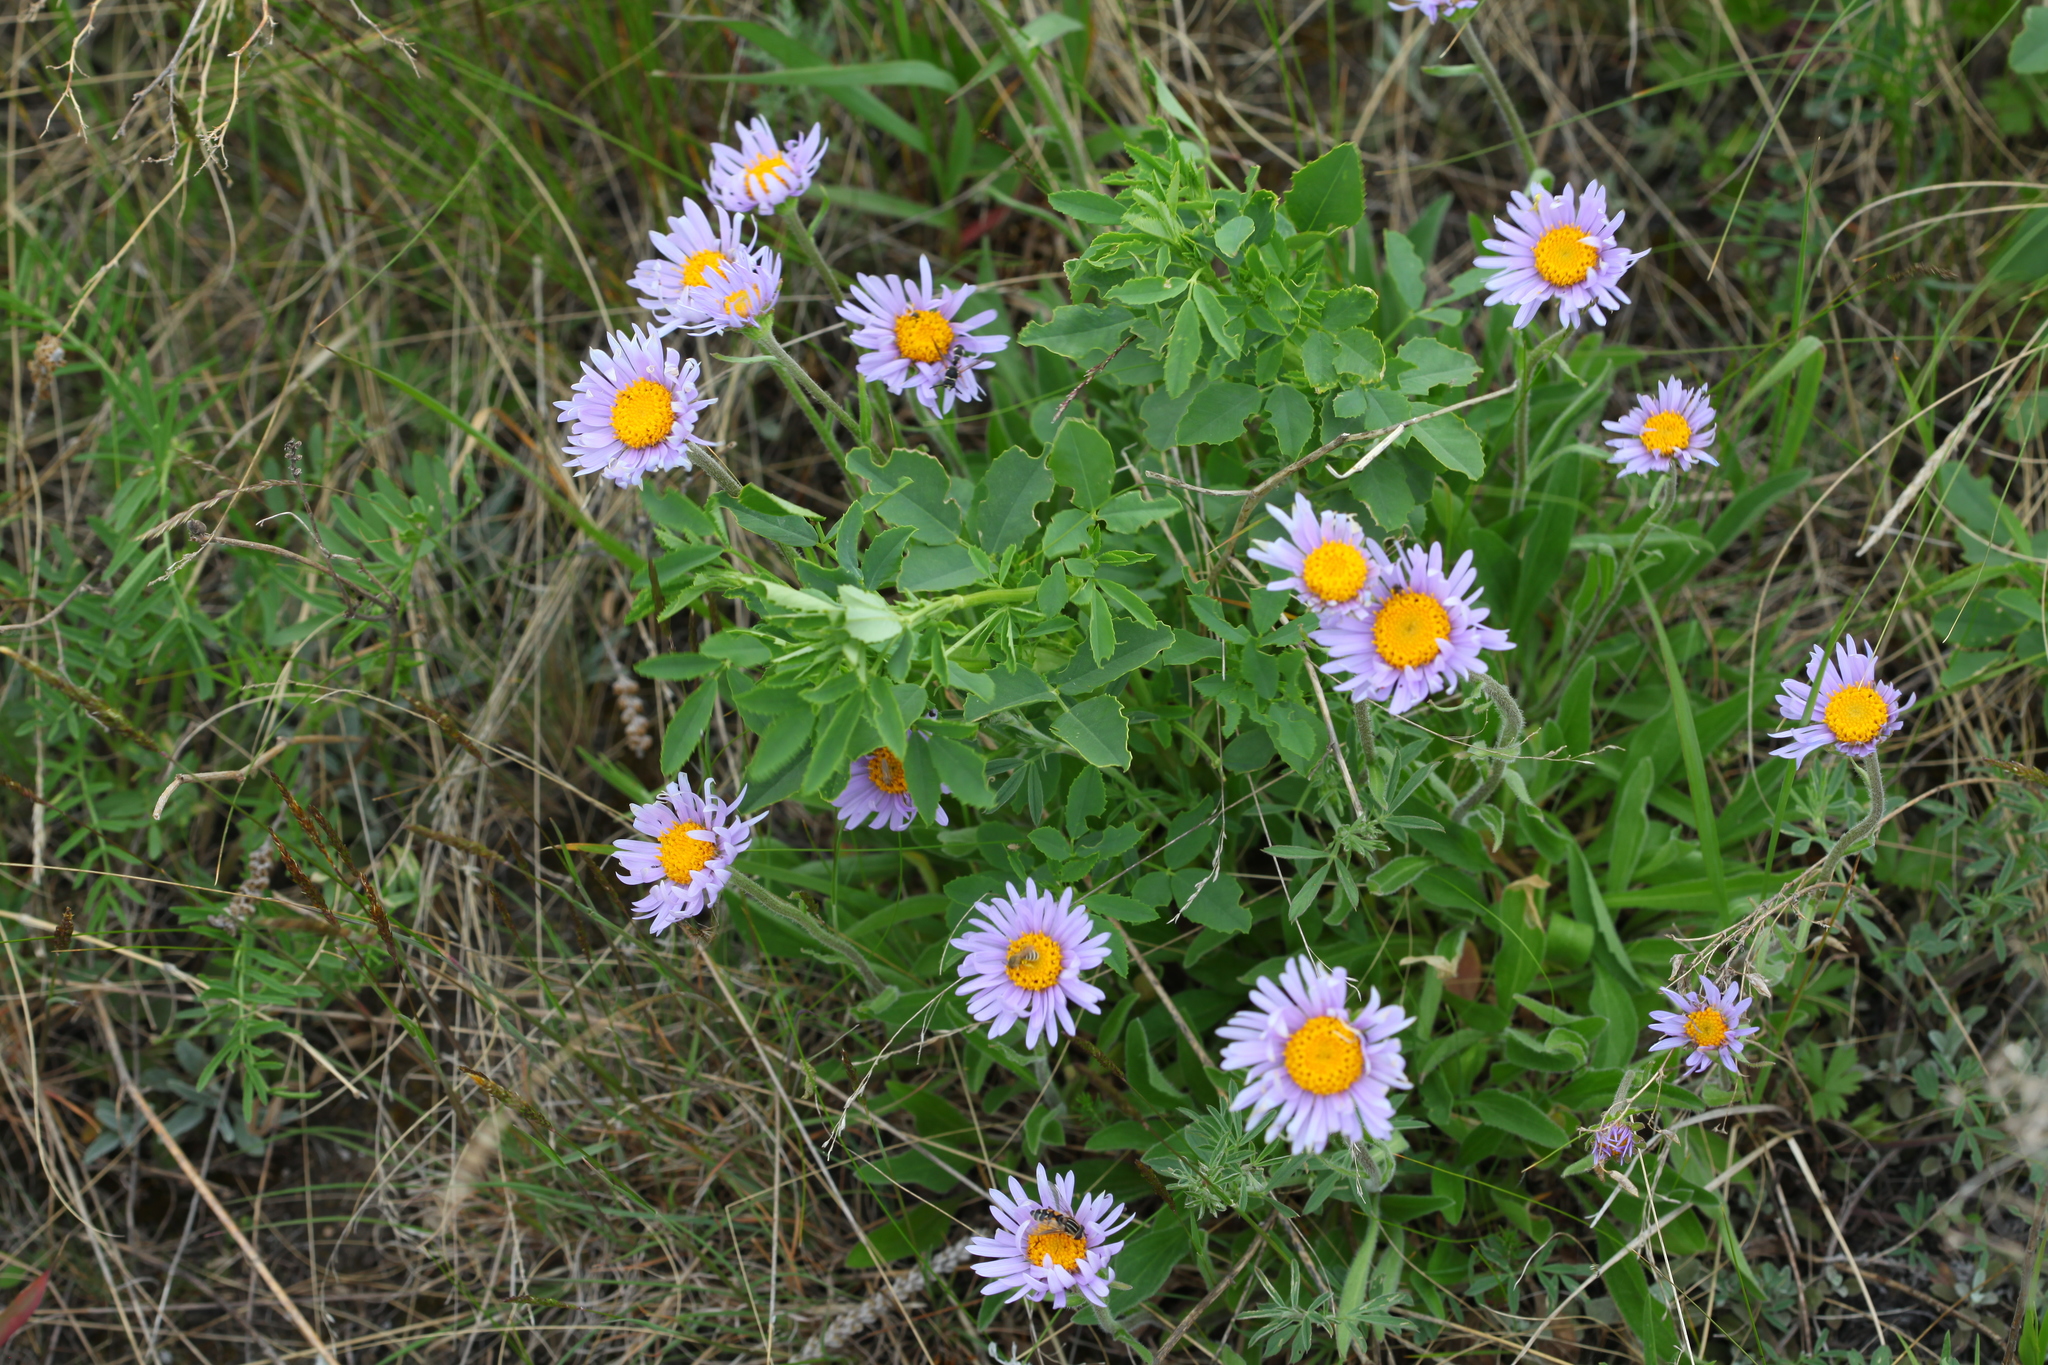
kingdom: Plantae
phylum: Tracheophyta
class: Magnoliopsida
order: Asterales
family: Asteraceae
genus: Aster
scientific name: Aster alpinus
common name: Alpine aster
